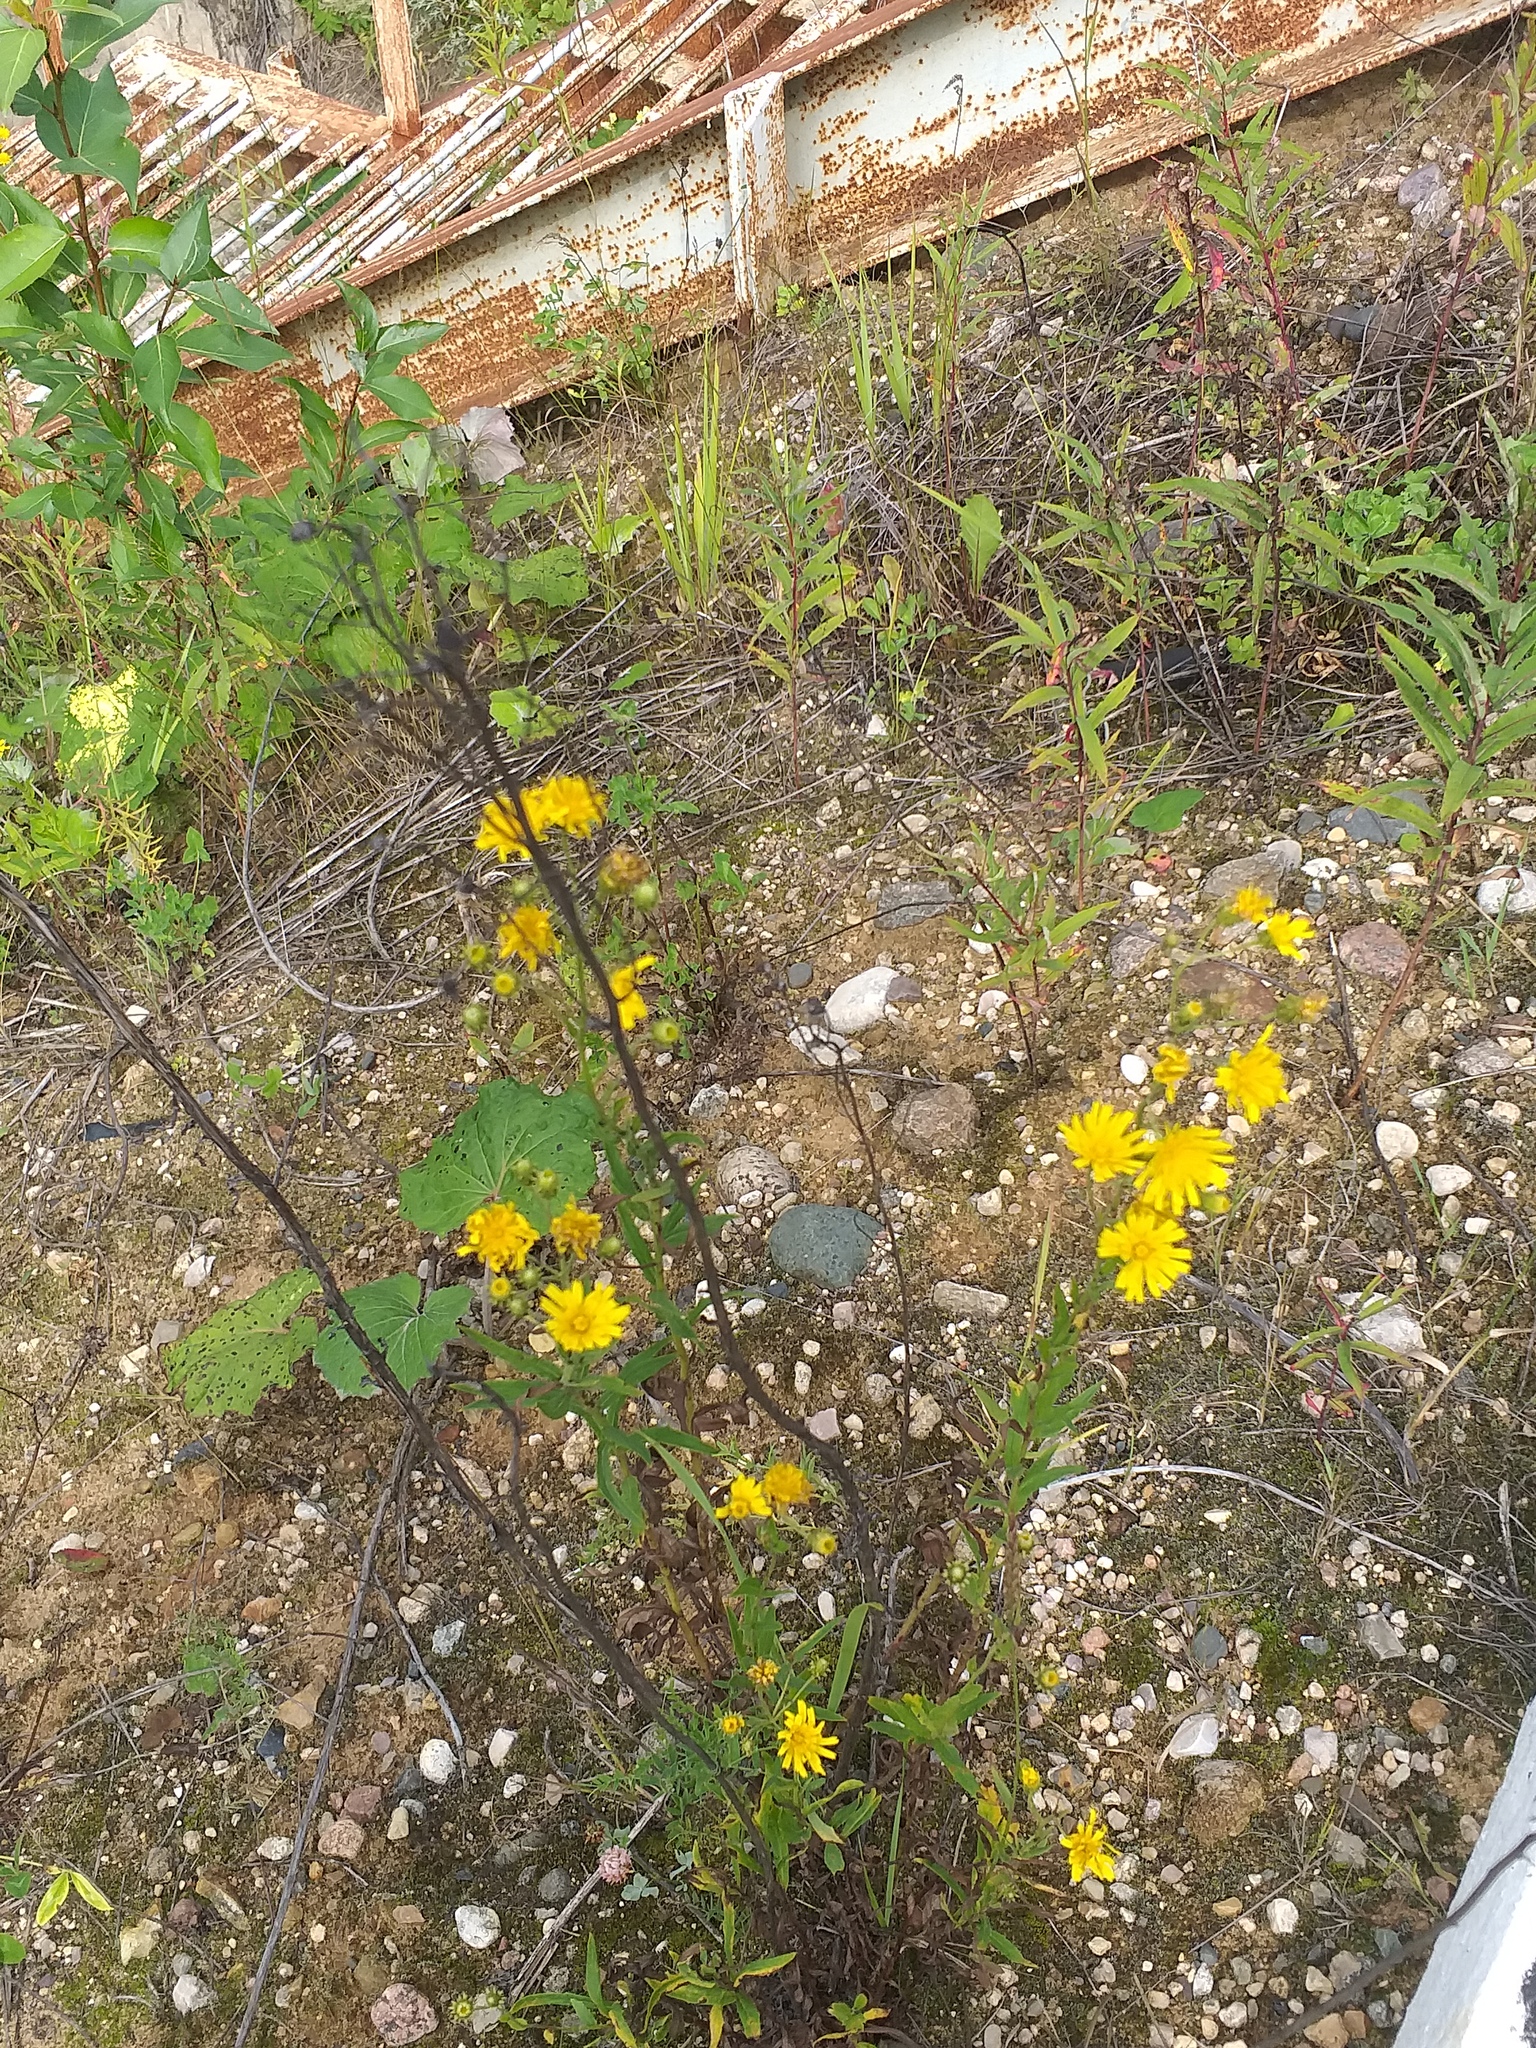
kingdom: Plantae
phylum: Tracheophyta
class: Magnoliopsida
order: Asterales
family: Asteraceae
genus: Hieracium
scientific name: Hieracium umbellatum
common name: Northern hawkweed
